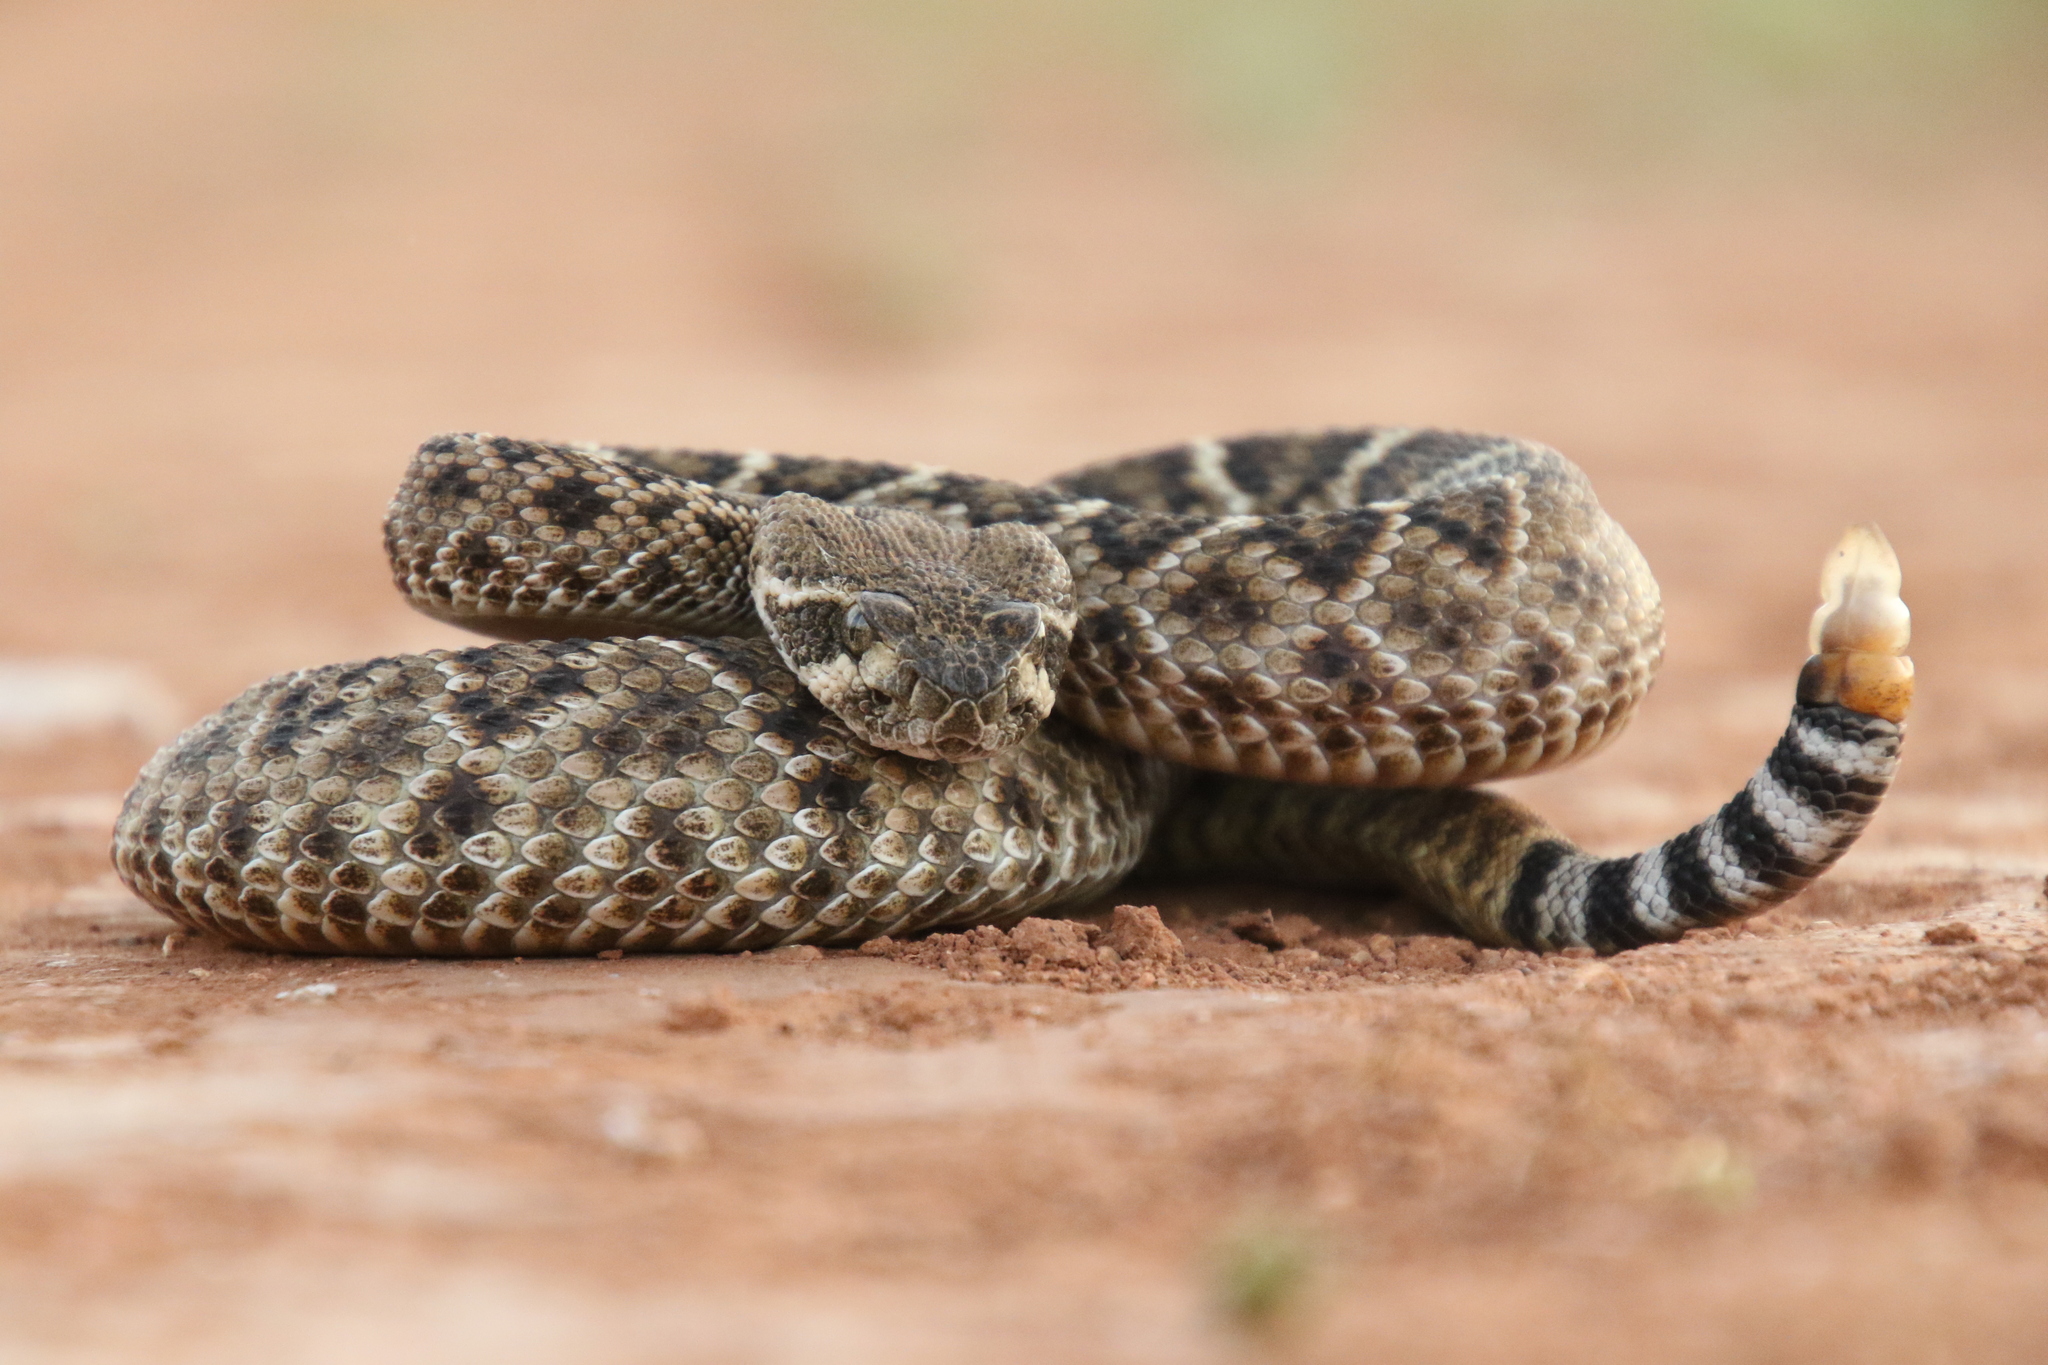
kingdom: Animalia
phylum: Chordata
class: Squamata
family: Viperidae
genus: Crotalus
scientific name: Crotalus atrox
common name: Western diamond-backed rattlesnake
